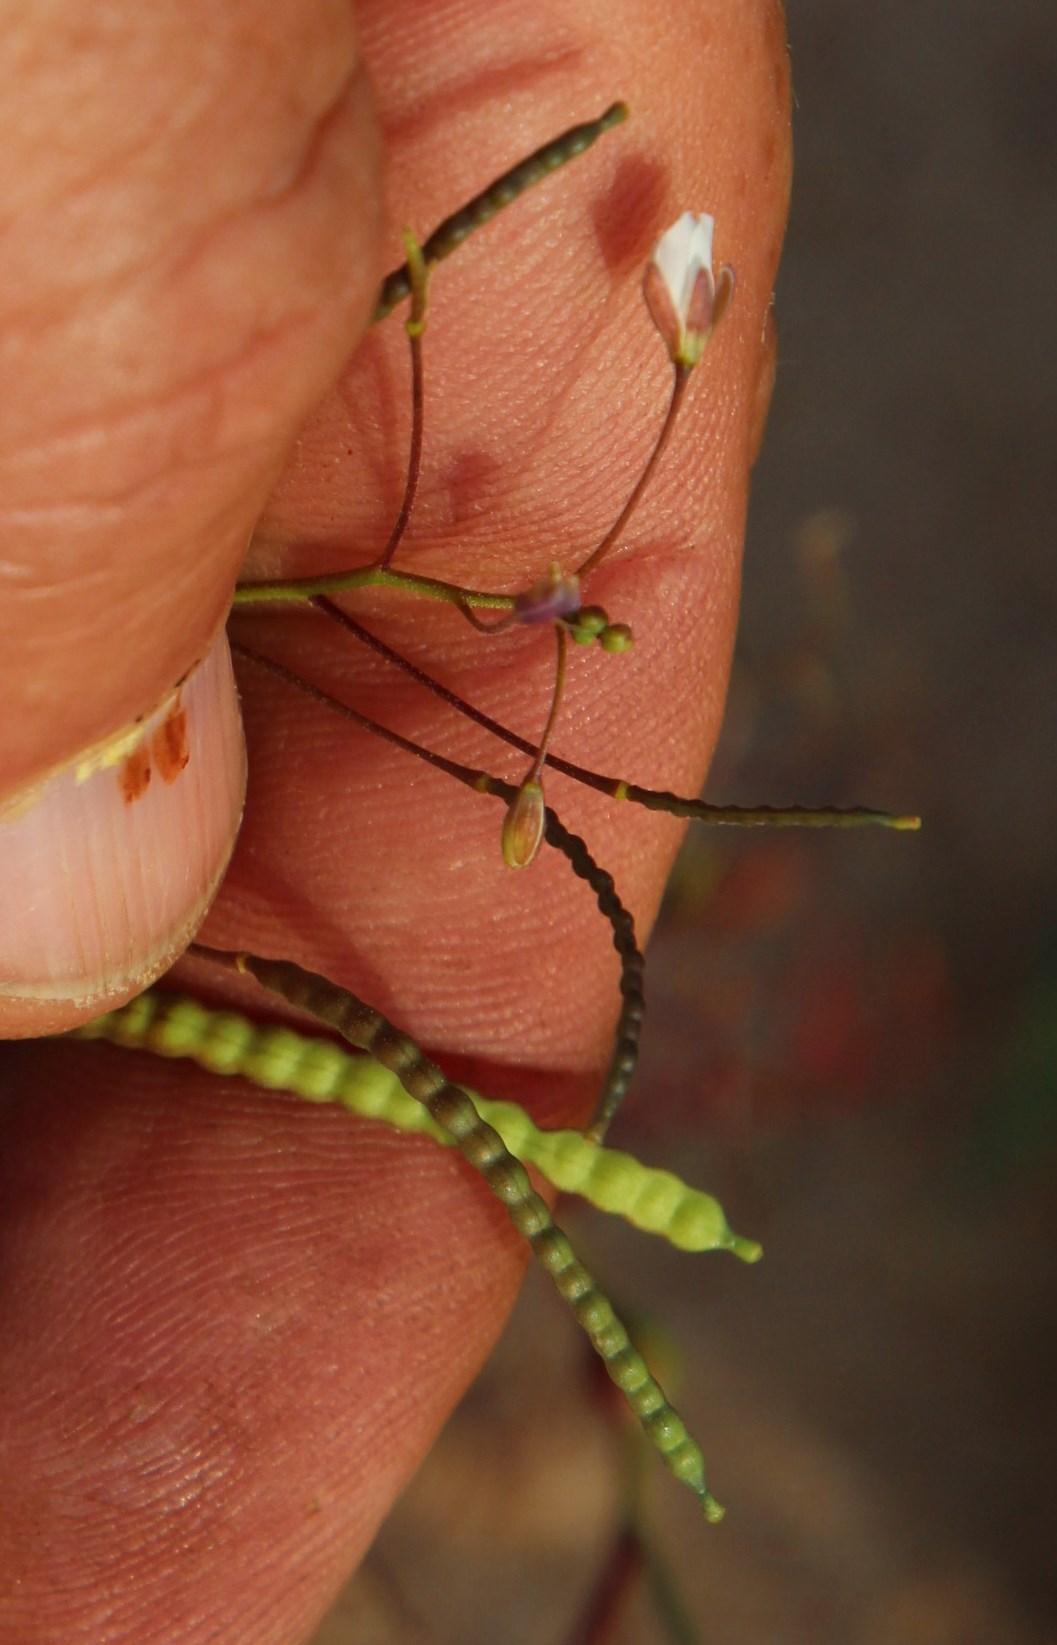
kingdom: Plantae
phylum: Tracheophyta
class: Magnoliopsida
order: Brassicales
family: Brassicaceae
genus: Heliophila
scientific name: Heliophila variabilis
